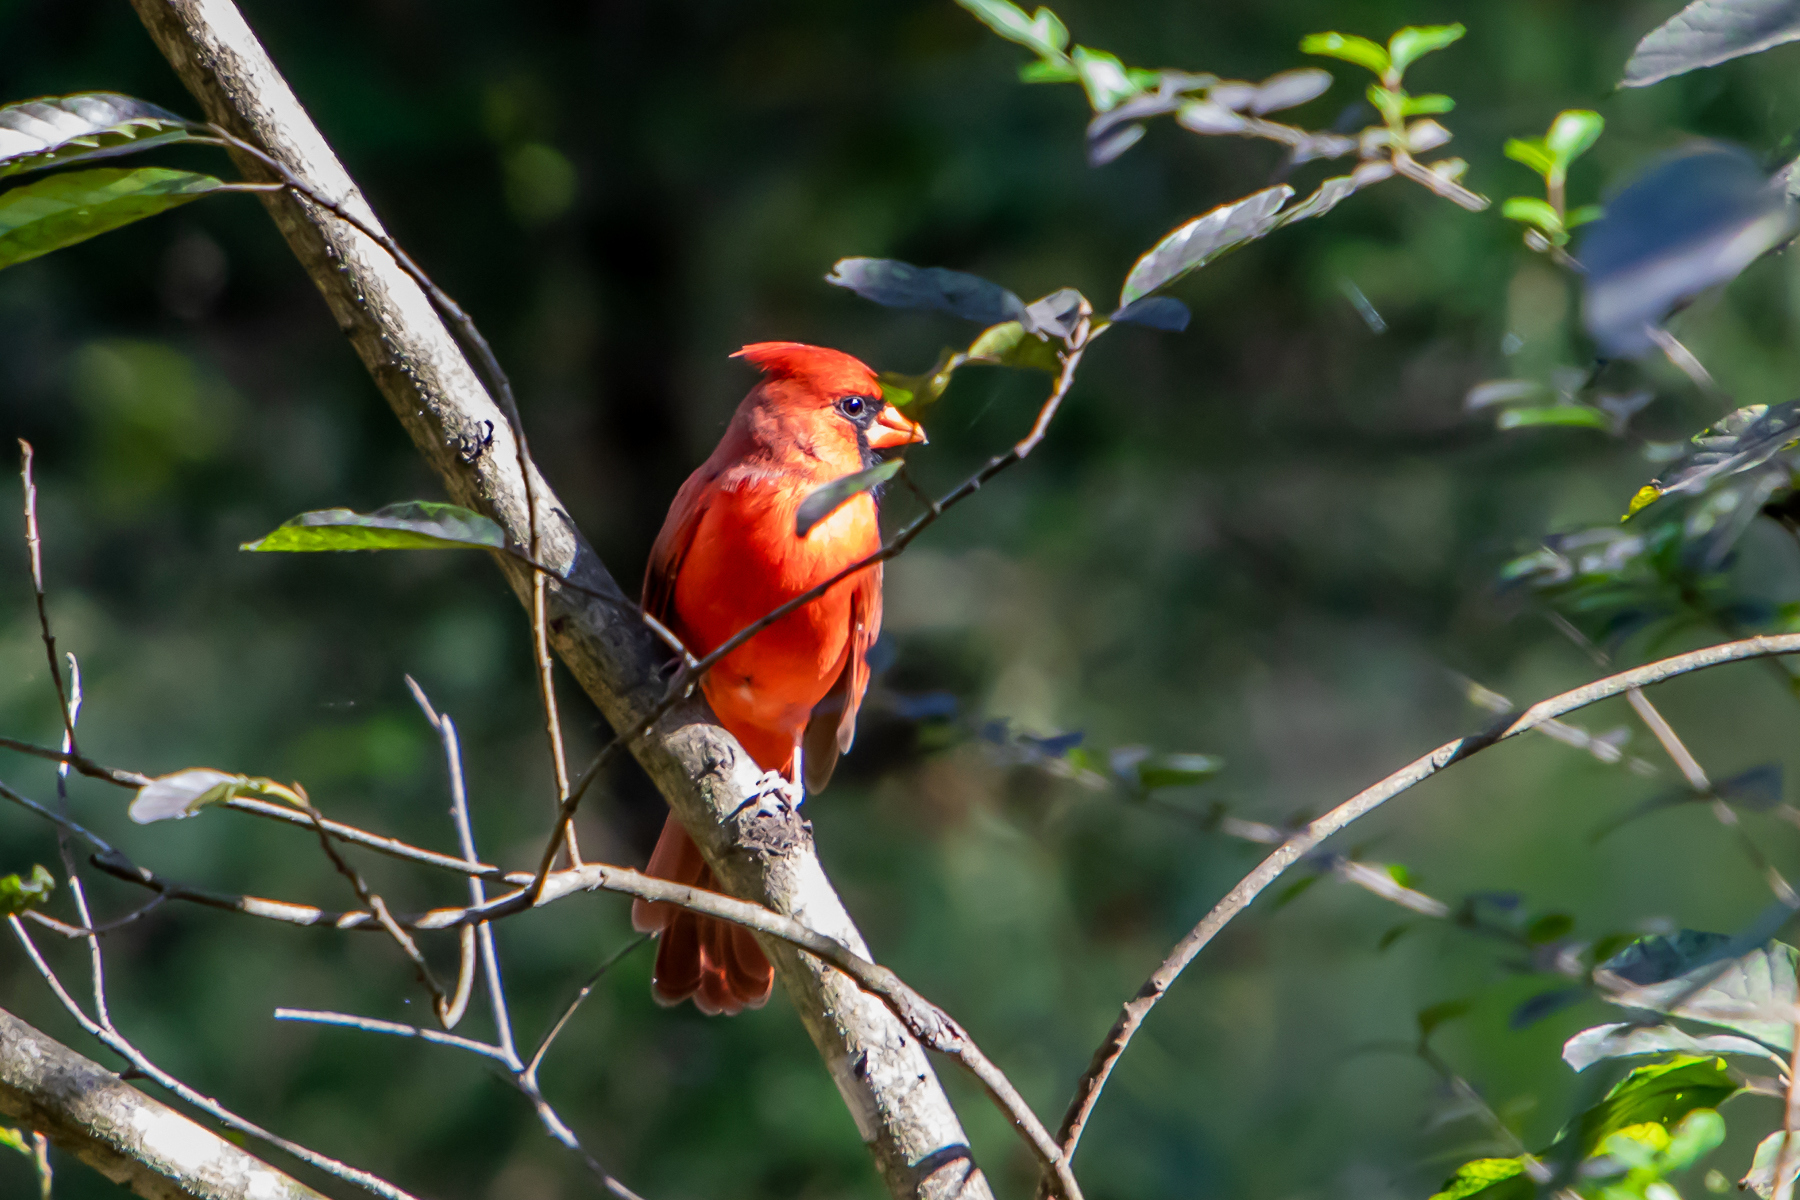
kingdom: Animalia
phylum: Chordata
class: Aves
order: Passeriformes
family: Cardinalidae
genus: Cardinalis
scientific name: Cardinalis cardinalis
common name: Northern cardinal
